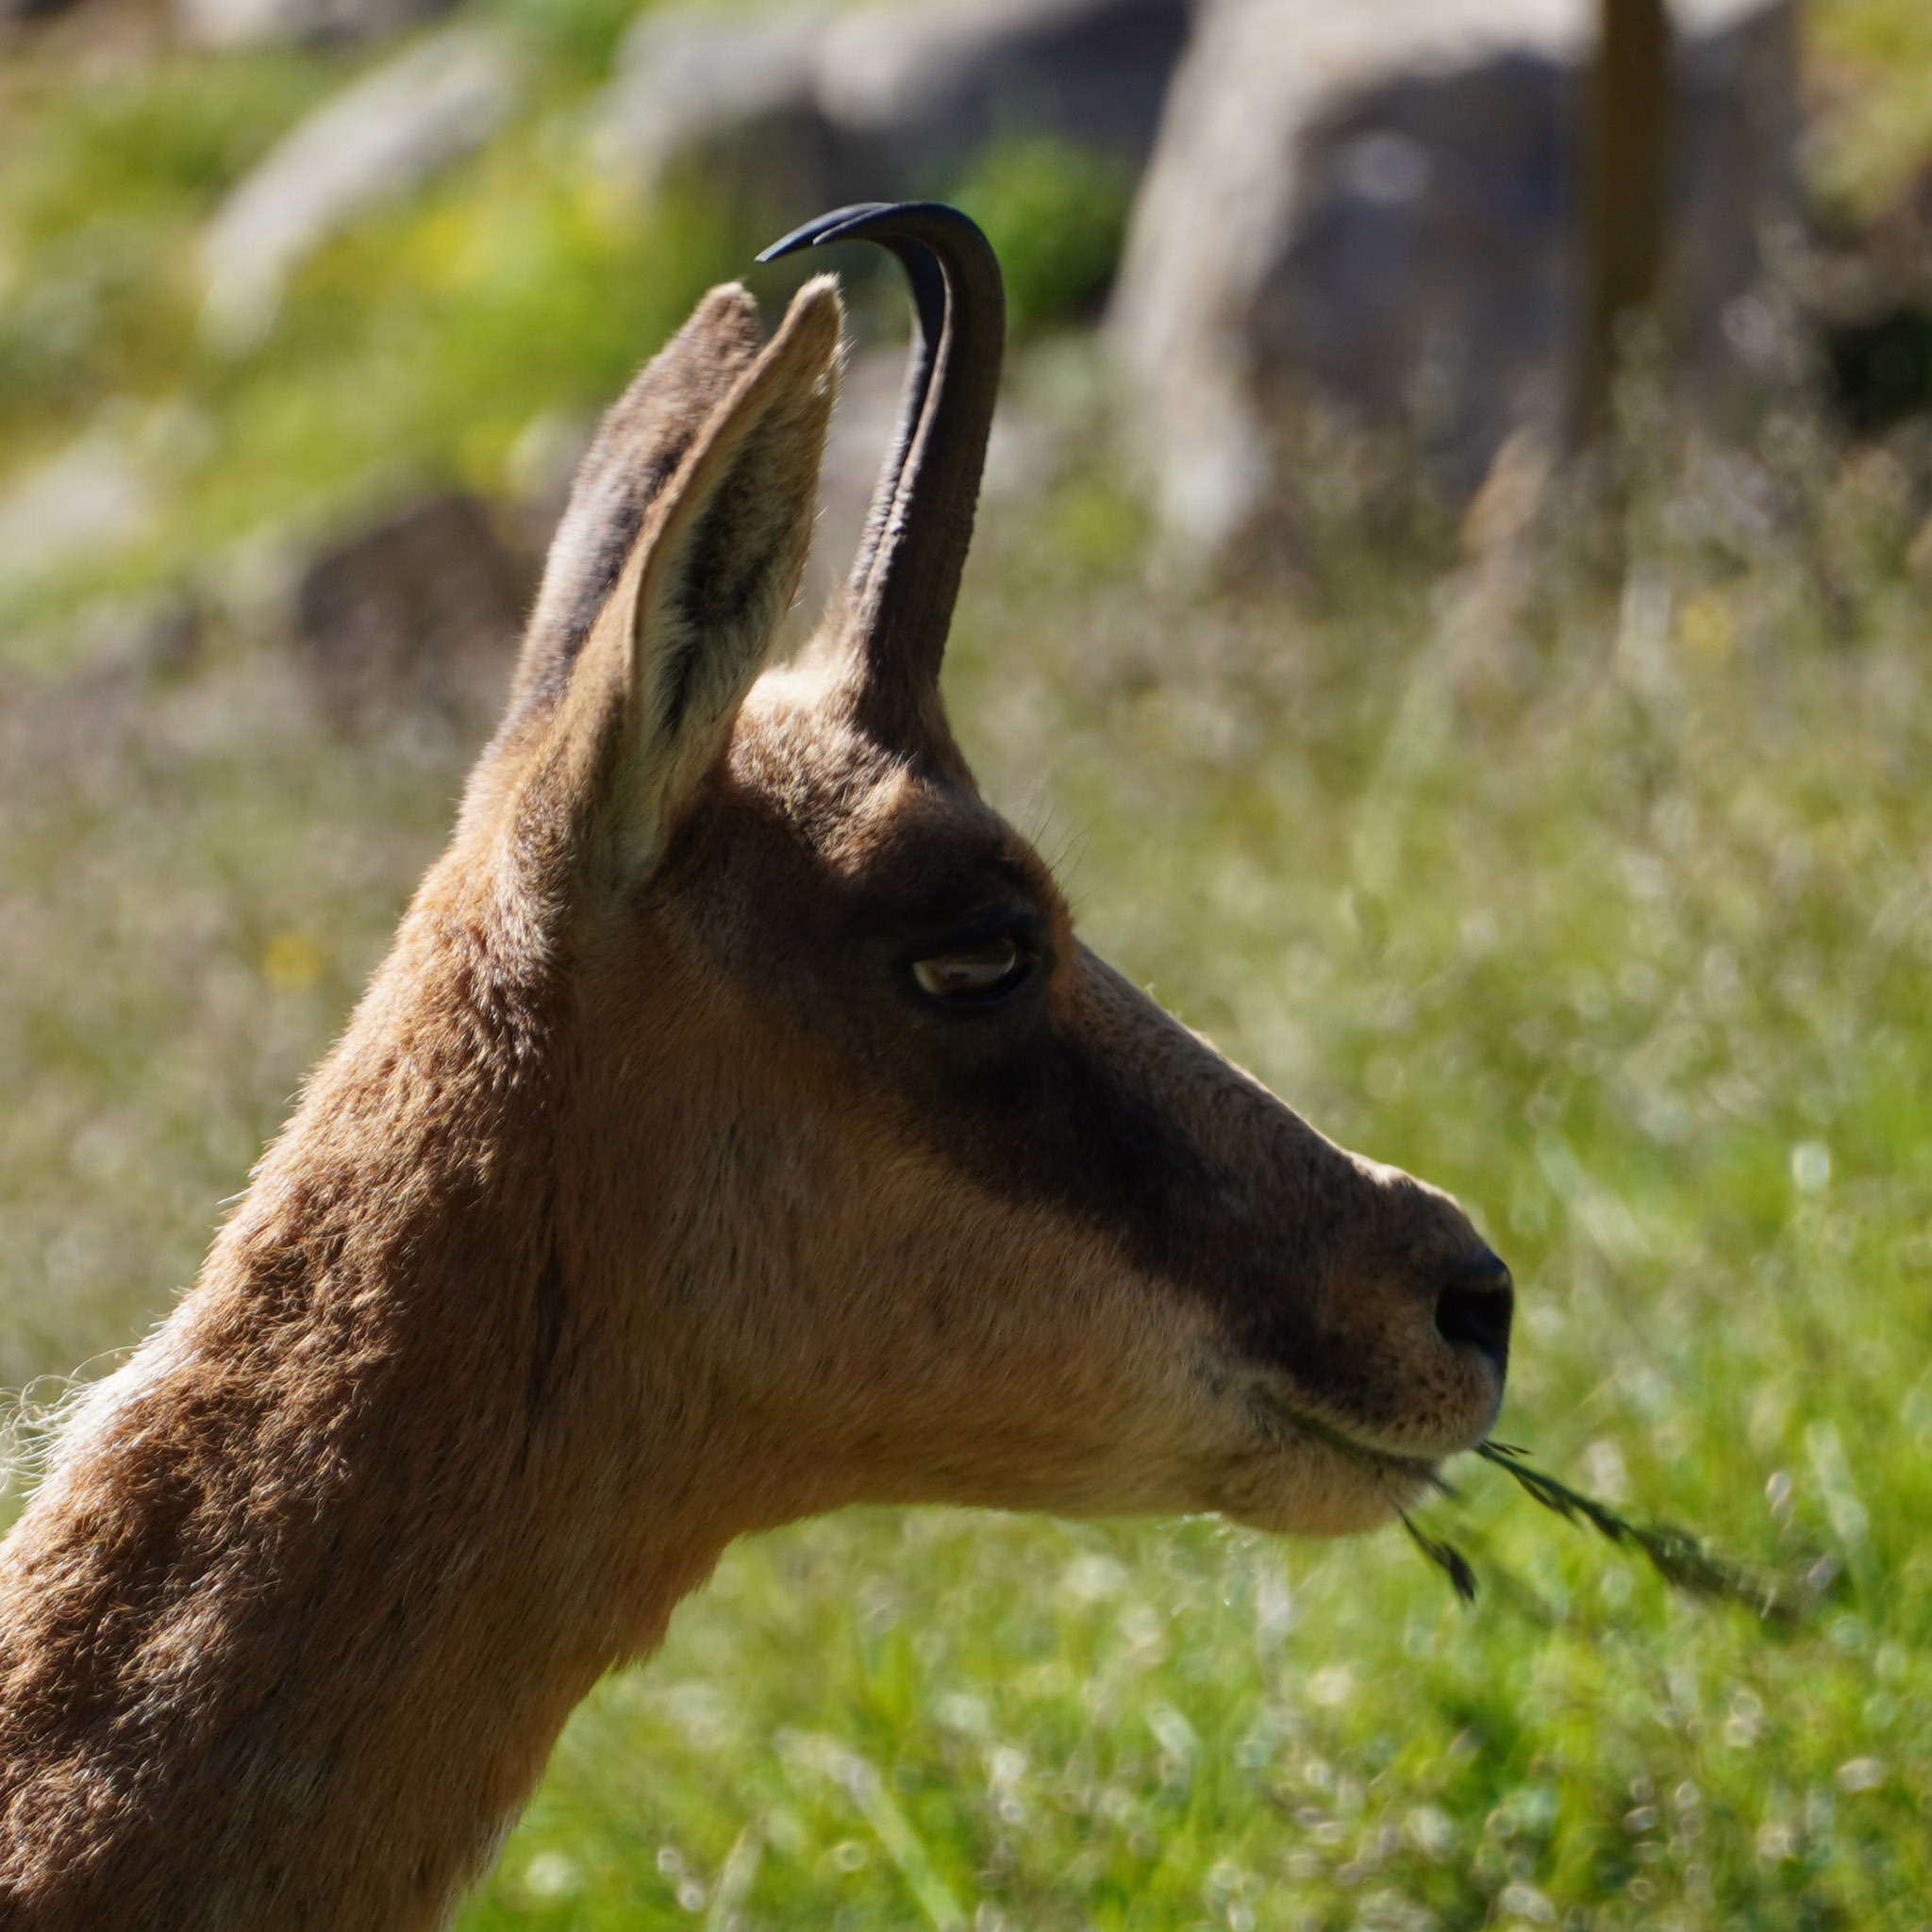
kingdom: Animalia
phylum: Chordata
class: Mammalia
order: Artiodactyla
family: Bovidae
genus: Rupicapra
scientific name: Rupicapra pyrenaica
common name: Pyrenean chamois
